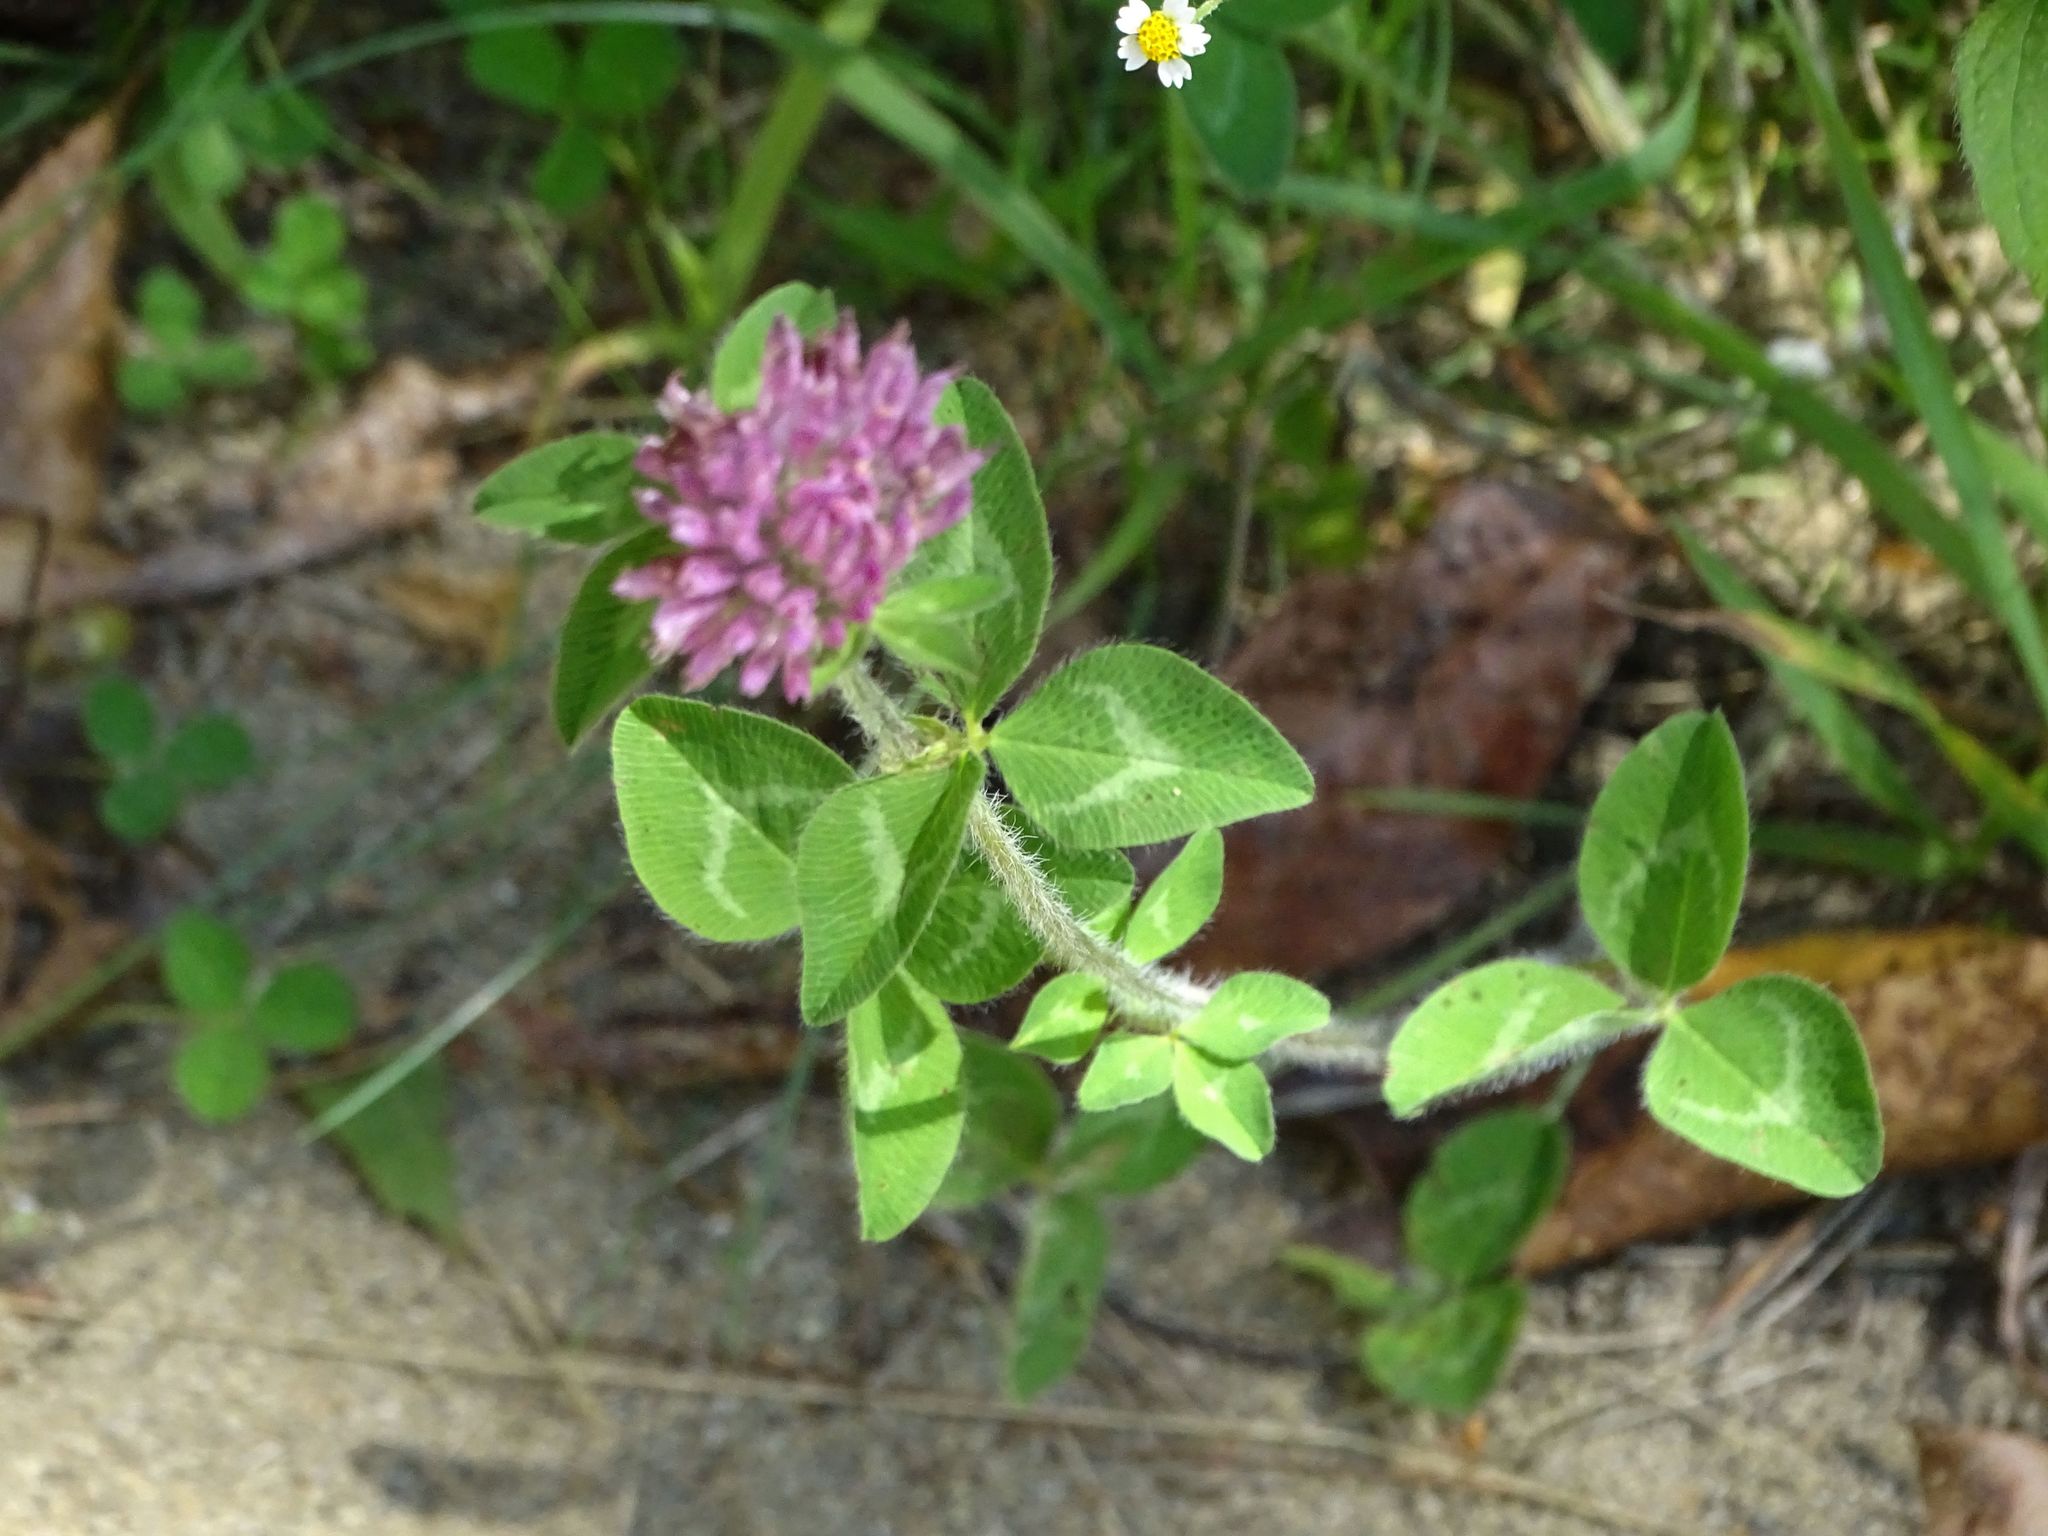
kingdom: Plantae
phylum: Tracheophyta
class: Magnoliopsida
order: Fabales
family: Fabaceae
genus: Trifolium
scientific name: Trifolium pratense
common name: Red clover
